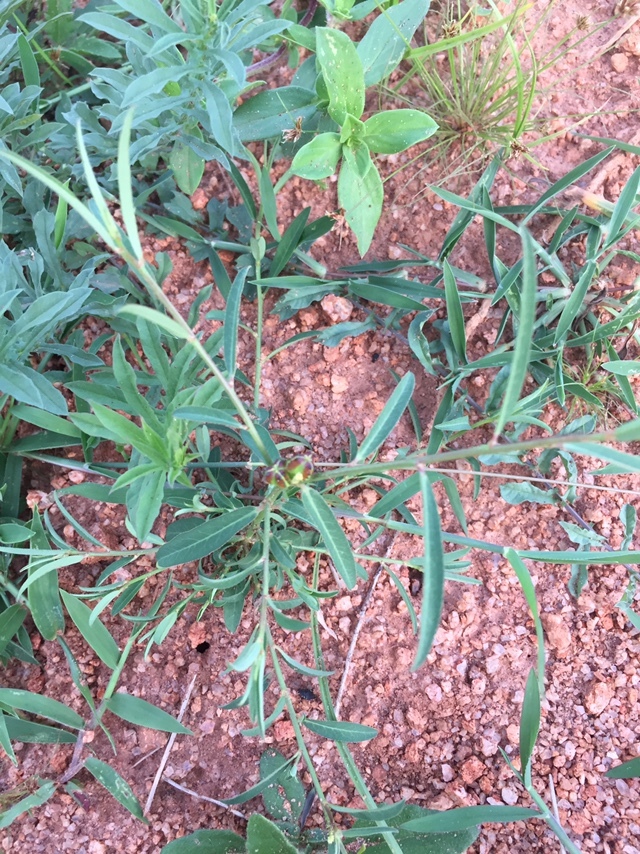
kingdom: Plantae
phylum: Tracheophyta
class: Magnoliopsida
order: Malpighiales
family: Euphorbiaceae
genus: Microstachys
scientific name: Microstachys chamaelea
